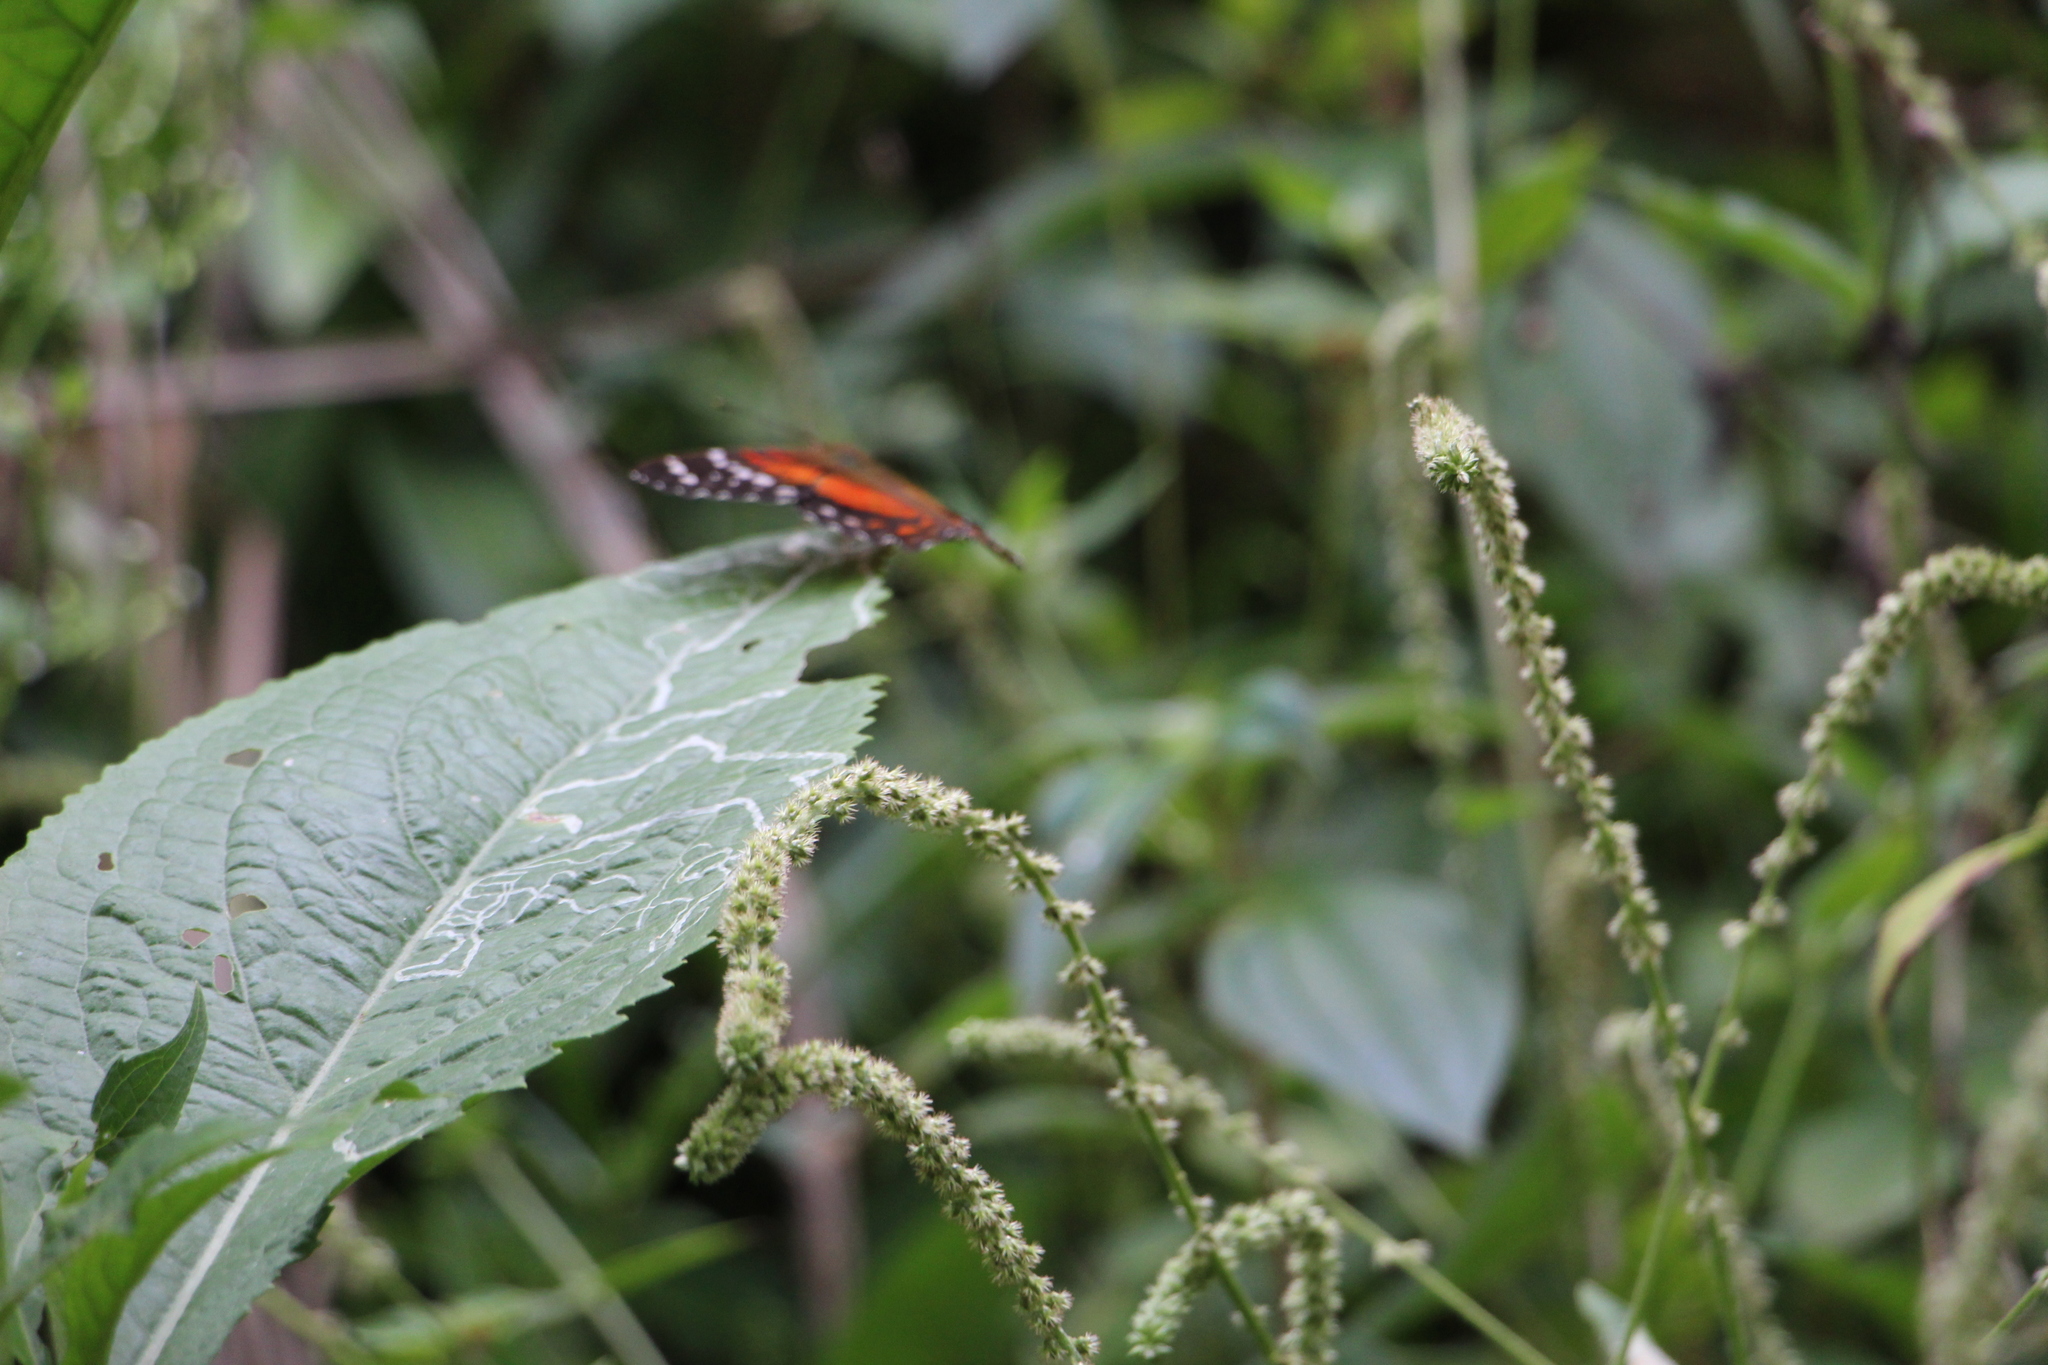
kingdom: Animalia
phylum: Arthropoda
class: Insecta
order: Lepidoptera
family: Nymphalidae
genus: Anartia
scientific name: Anartia amathea
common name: Red peacock
